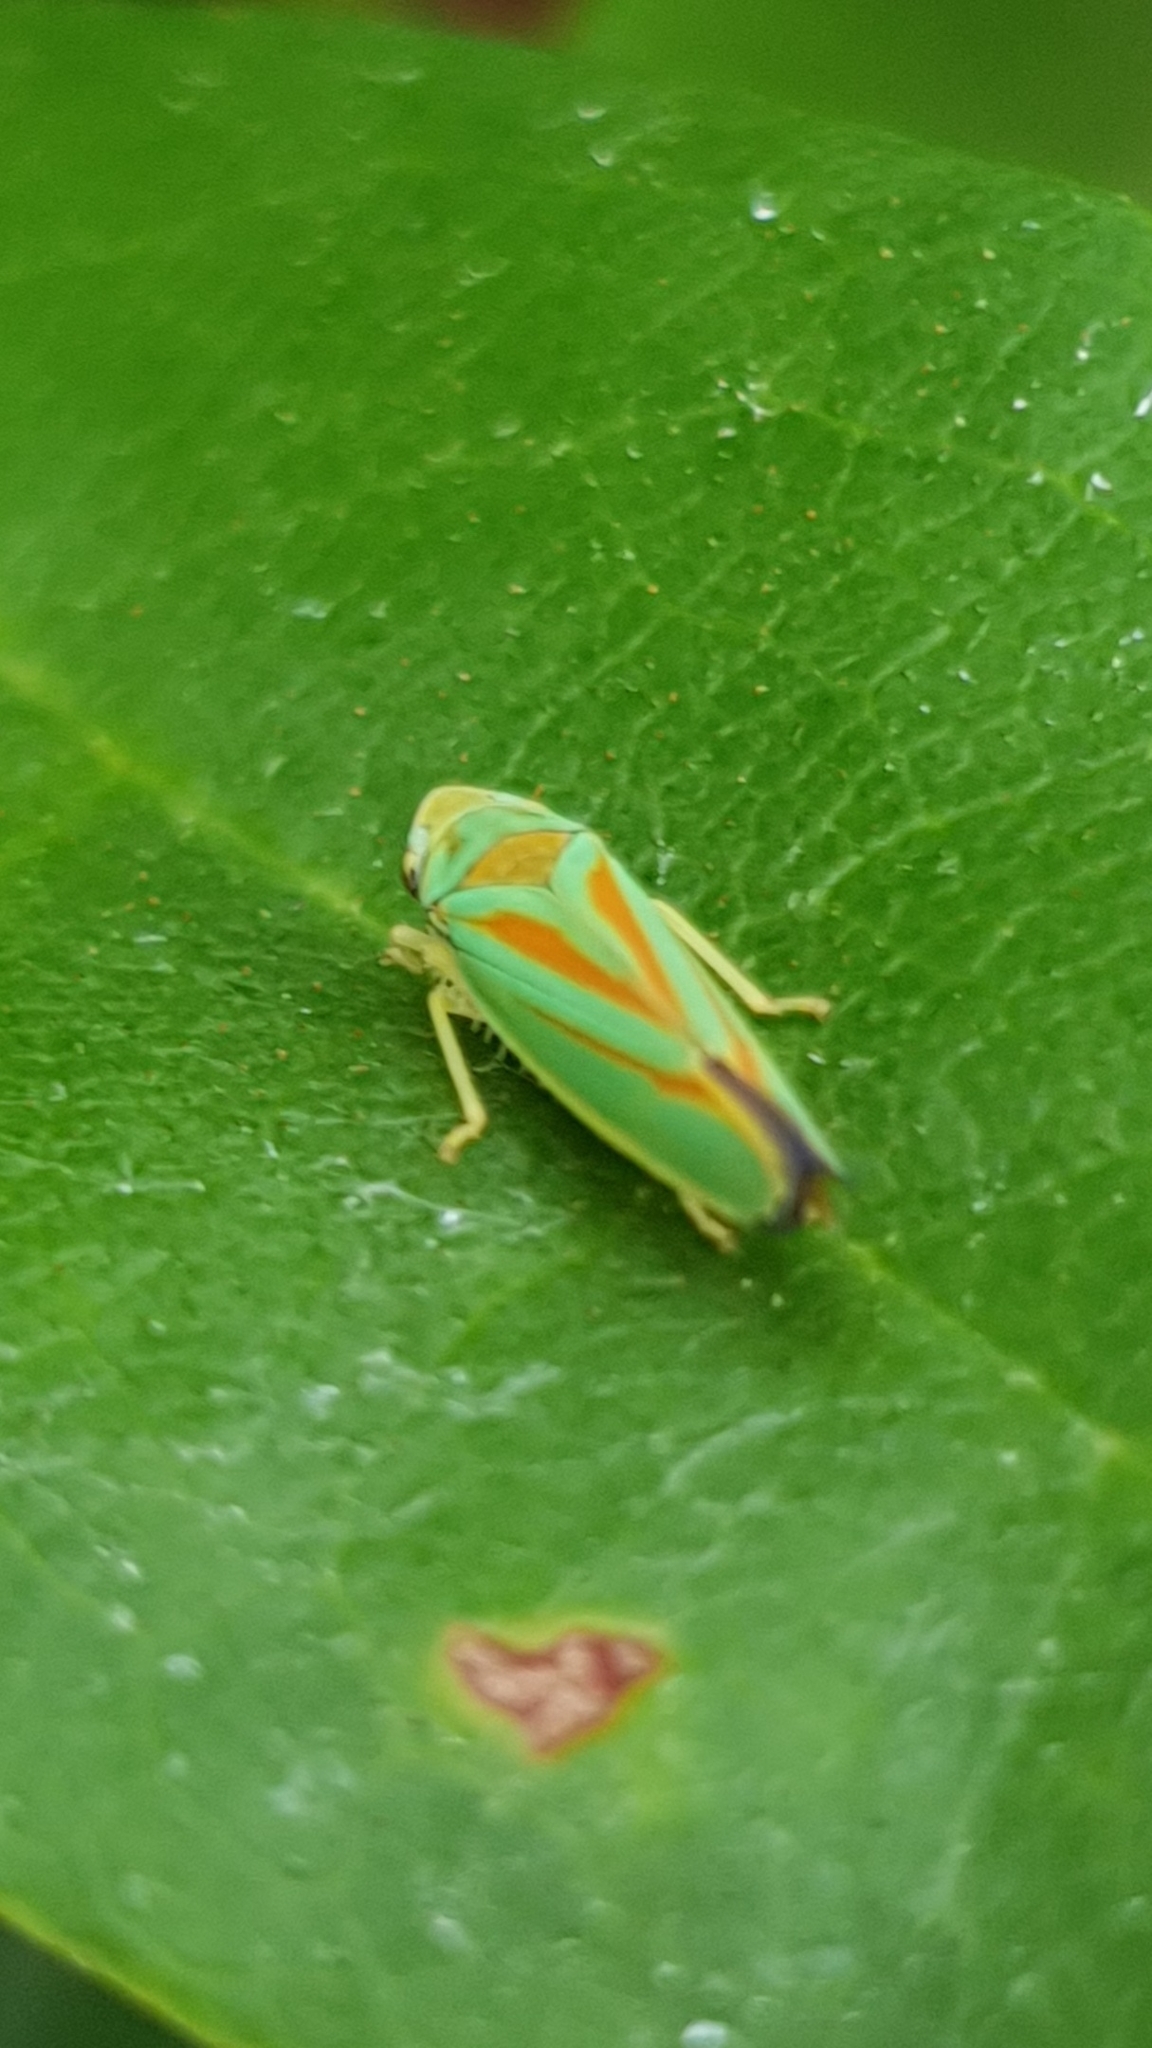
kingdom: Animalia
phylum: Arthropoda
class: Insecta
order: Hemiptera
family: Cicadellidae
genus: Graphocephala
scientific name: Graphocephala fennahi
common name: Rhododendron leafhopper
